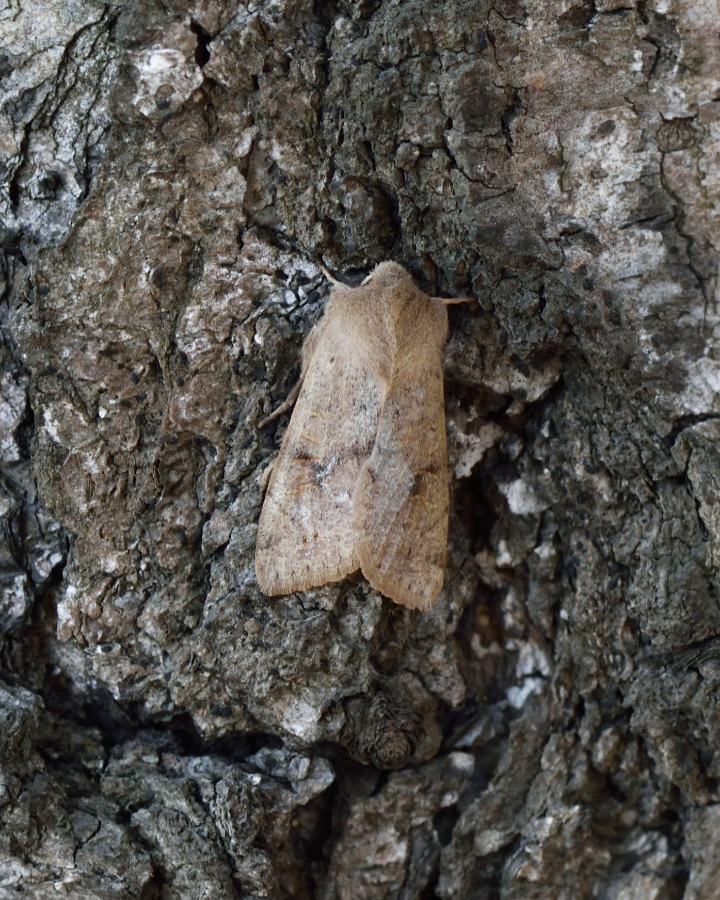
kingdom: Animalia
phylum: Arthropoda
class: Insecta
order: Lepidoptera
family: Noctuidae
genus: Orthosia
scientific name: Orthosia incerta
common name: Clouded drab
